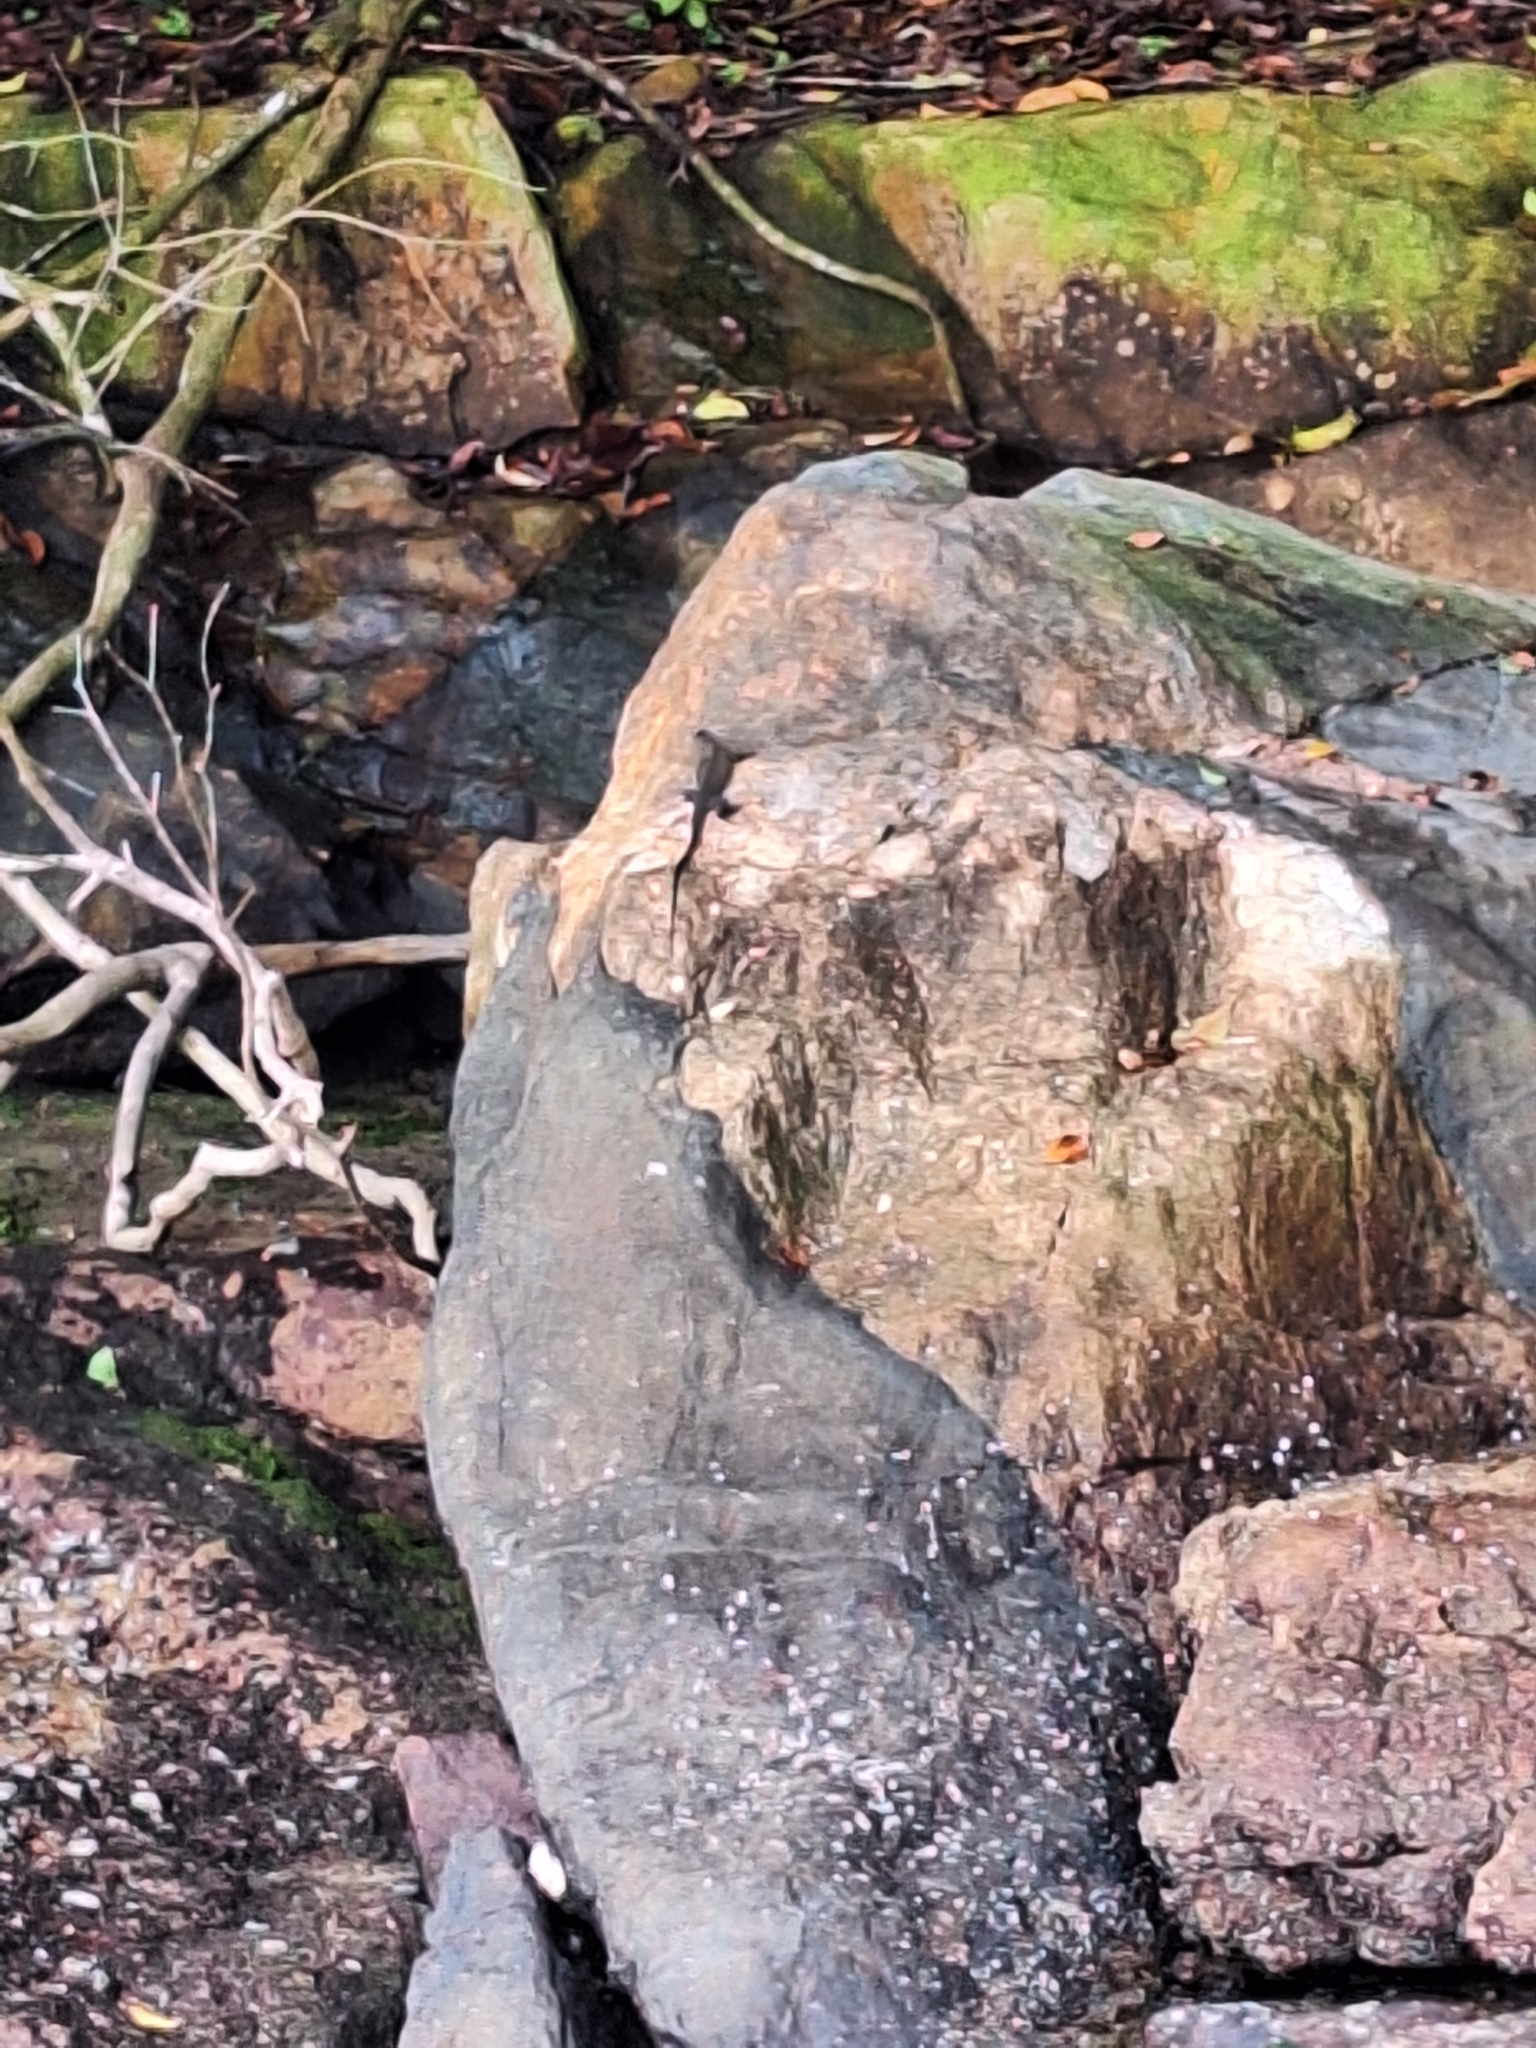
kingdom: Animalia
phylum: Chordata
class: Squamata
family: Varanidae
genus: Varanus
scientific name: Varanus salvator
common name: Common water monitor
